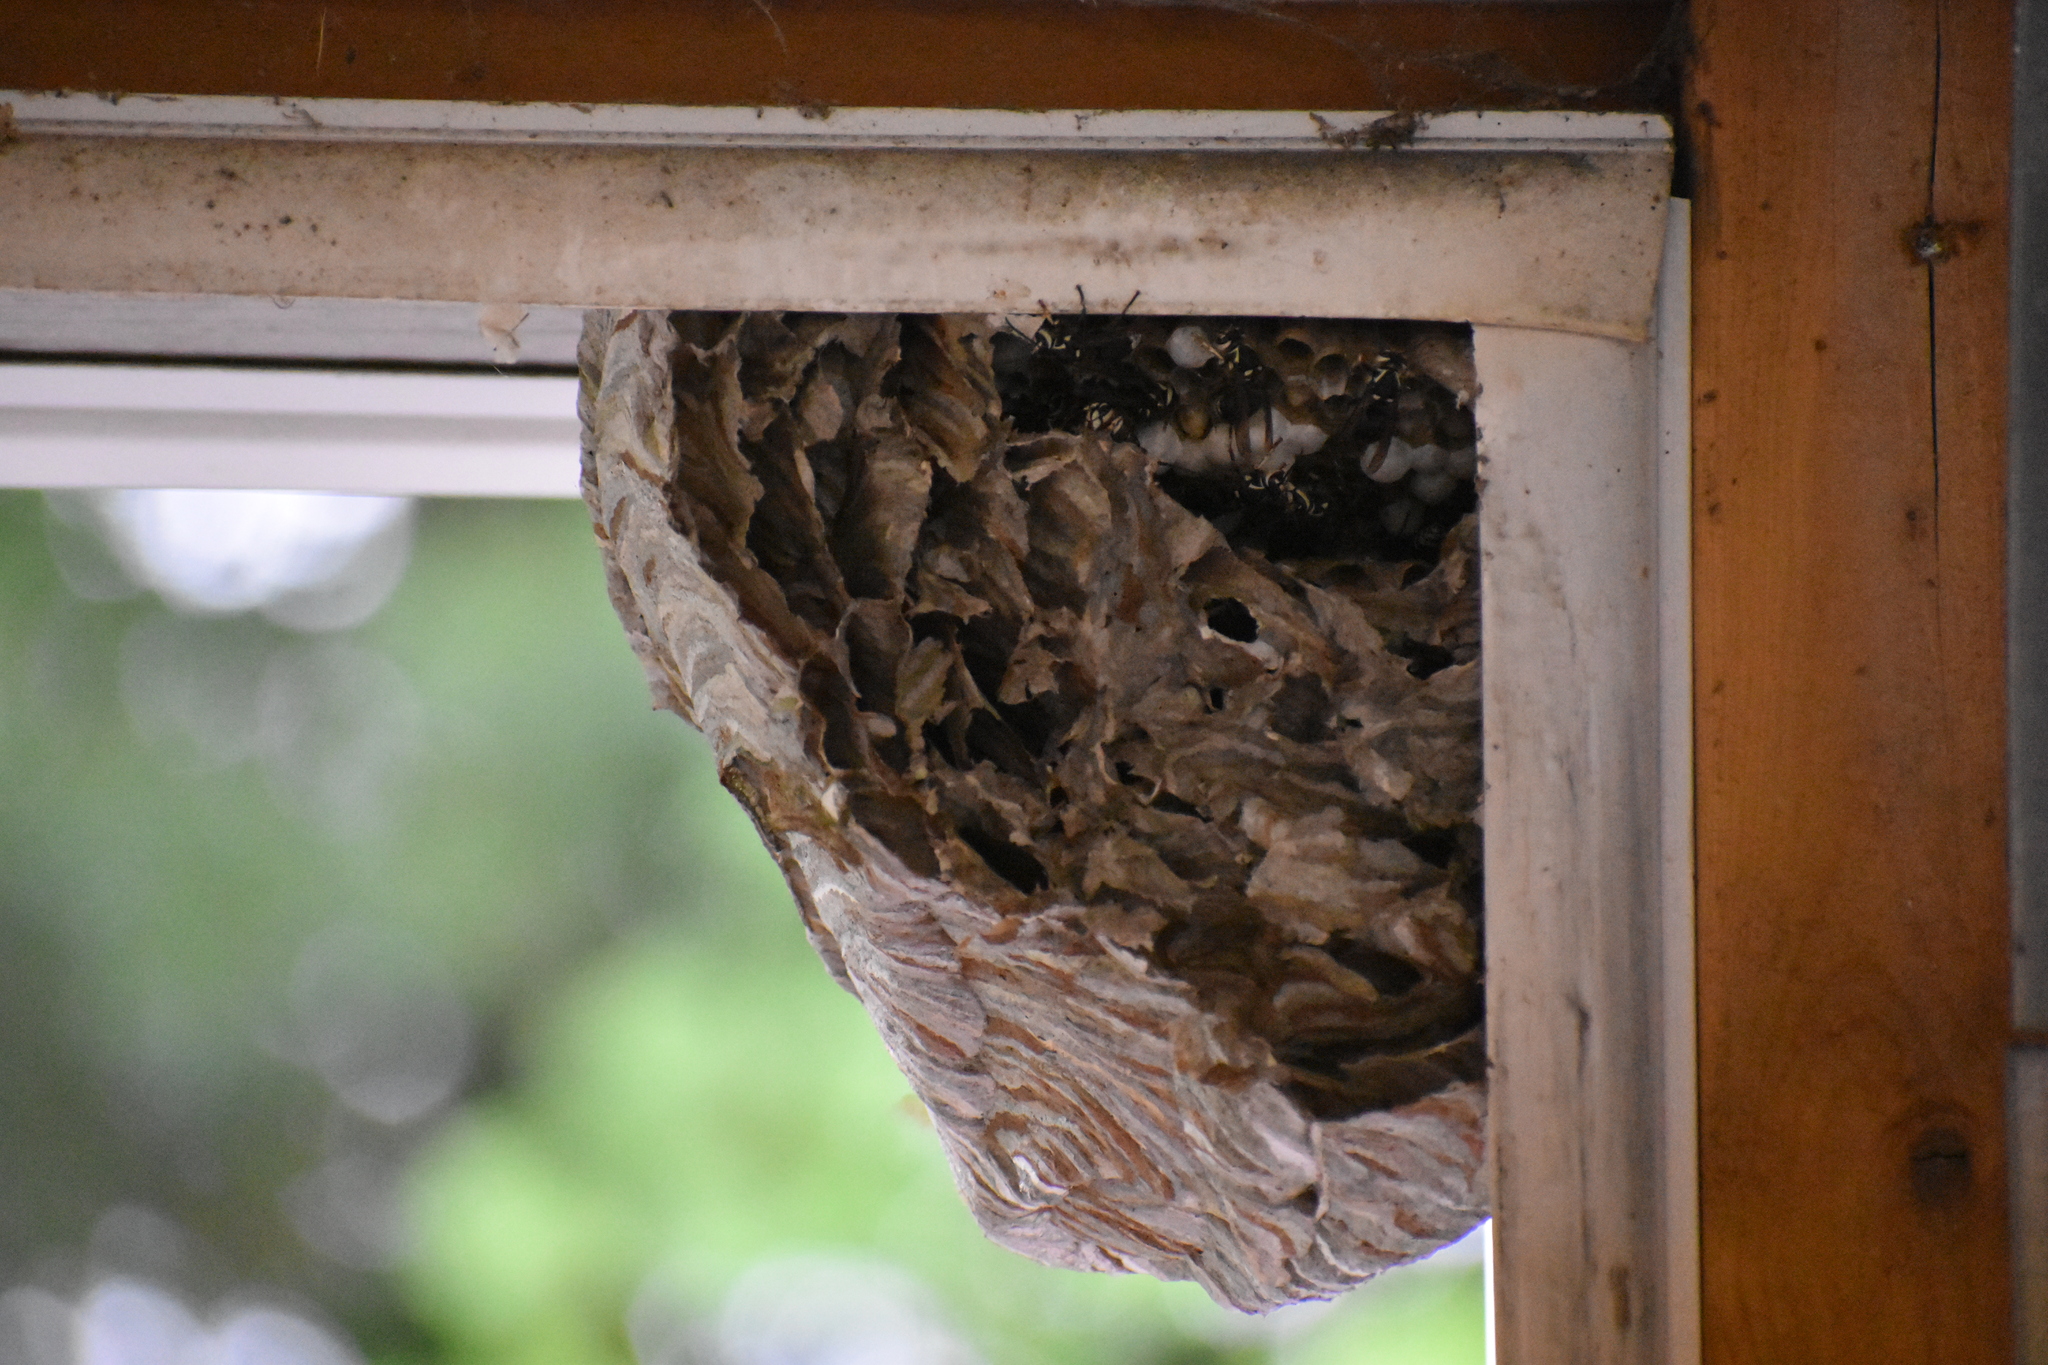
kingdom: Animalia
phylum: Arthropoda
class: Insecta
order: Hymenoptera
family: Vespidae
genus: Dolichovespula
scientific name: Dolichovespula maculata
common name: Bald-faced hornet
